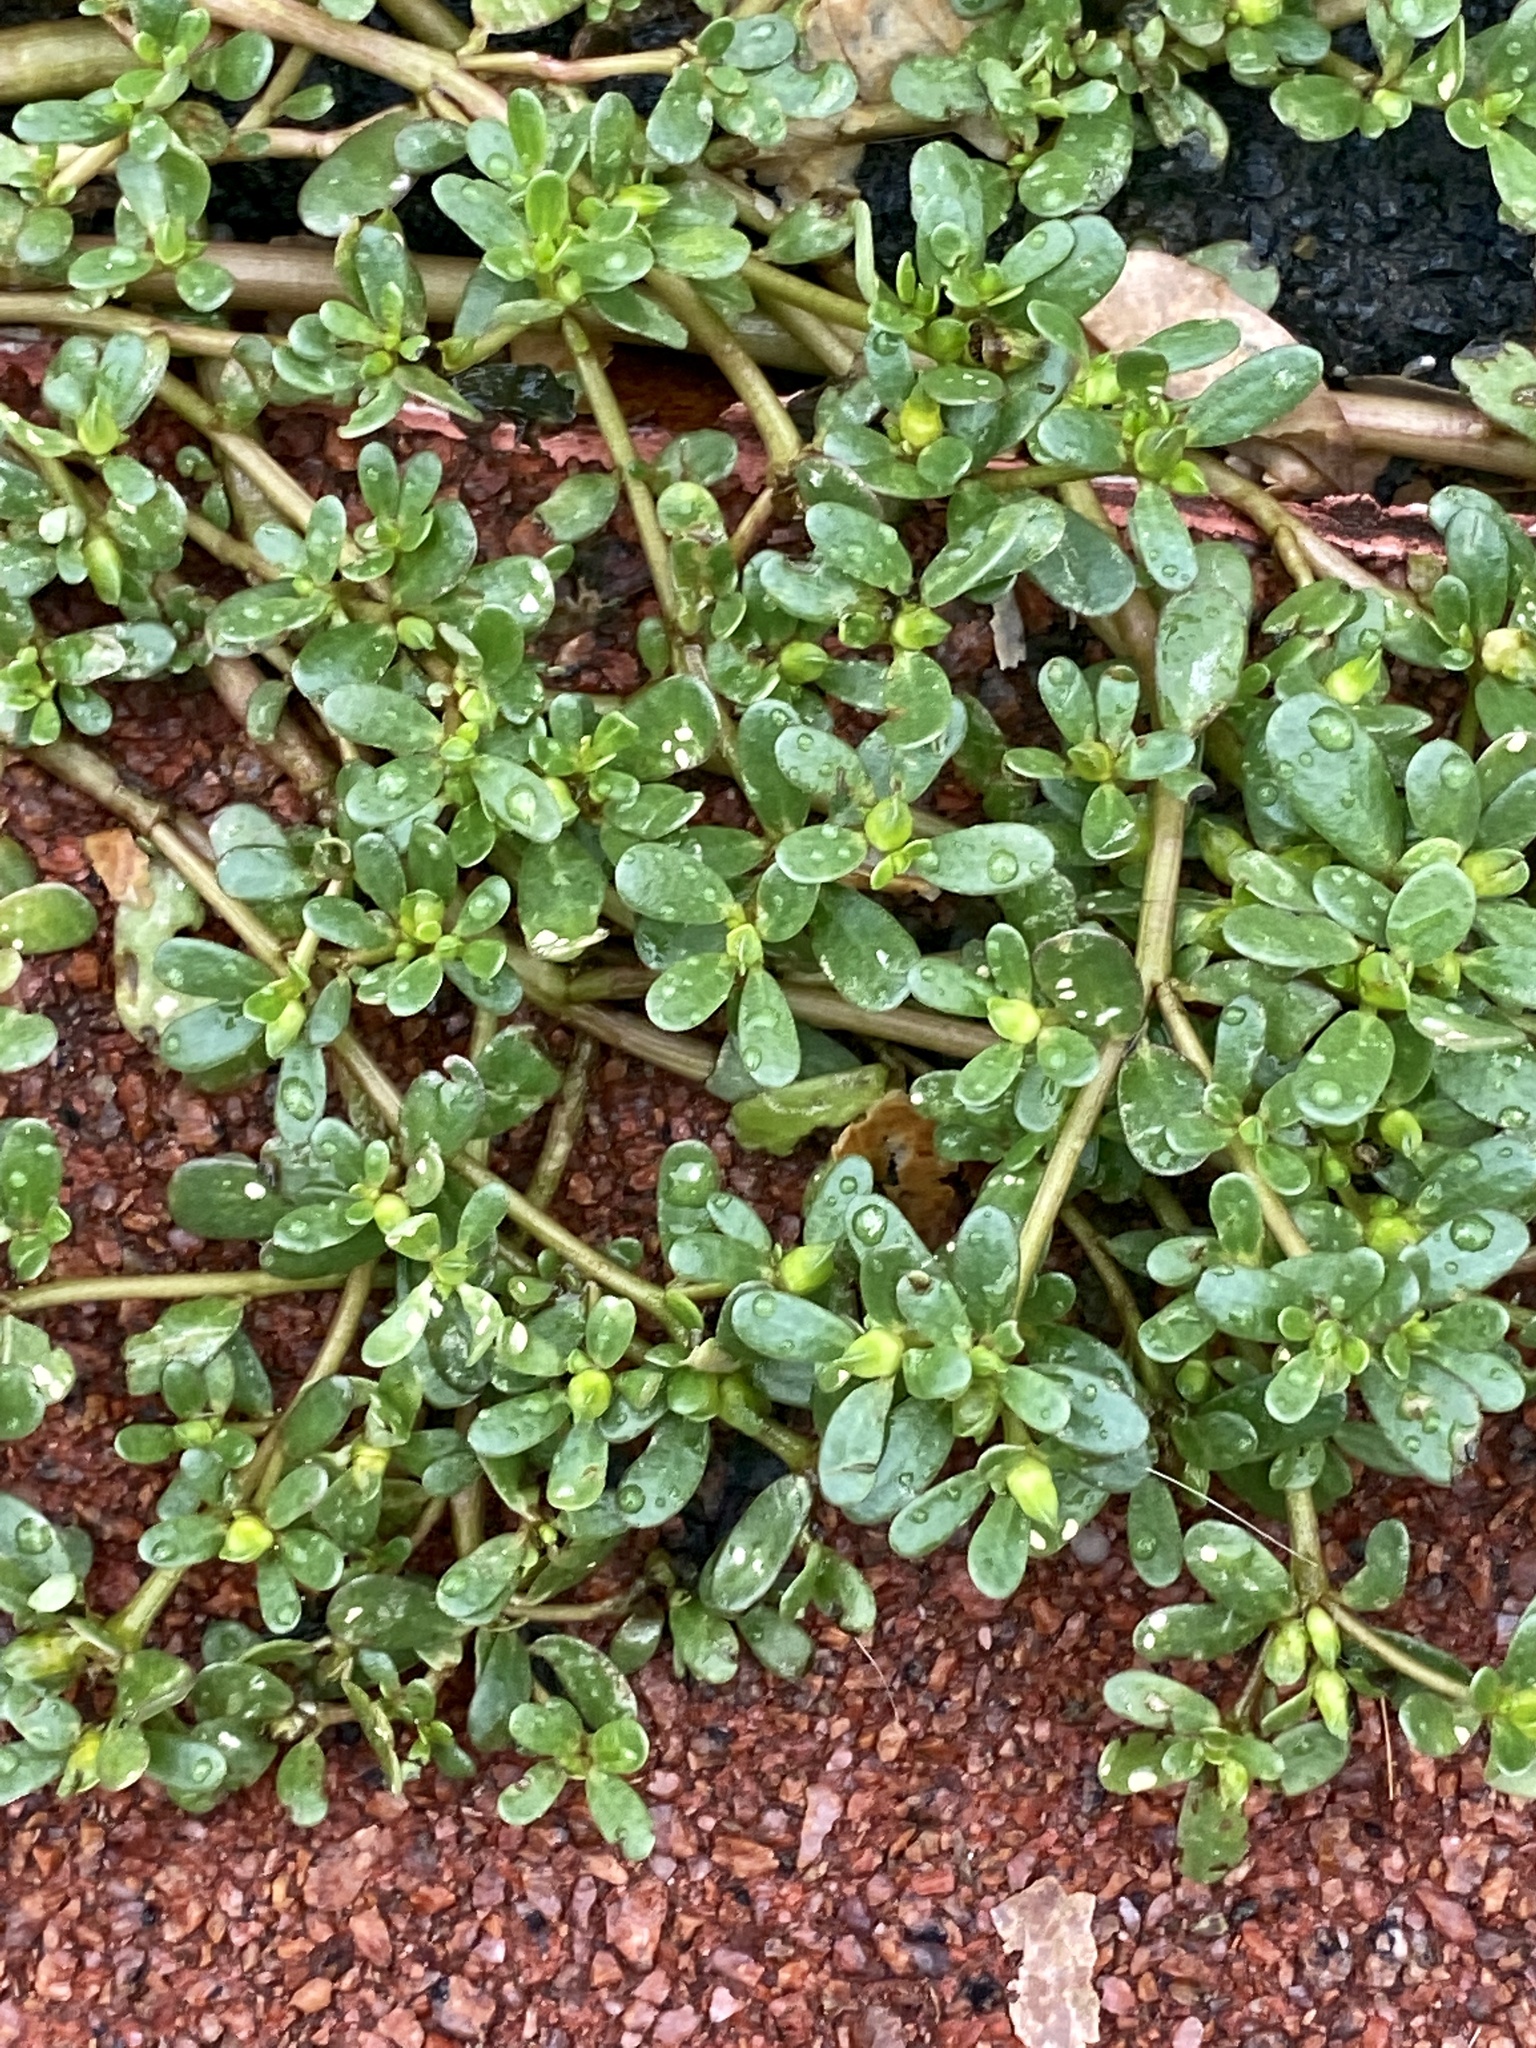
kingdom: Plantae
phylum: Tracheophyta
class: Magnoliopsida
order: Caryophyllales
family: Portulacaceae
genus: Portulaca
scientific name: Portulaca oleracea
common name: Common purslane
